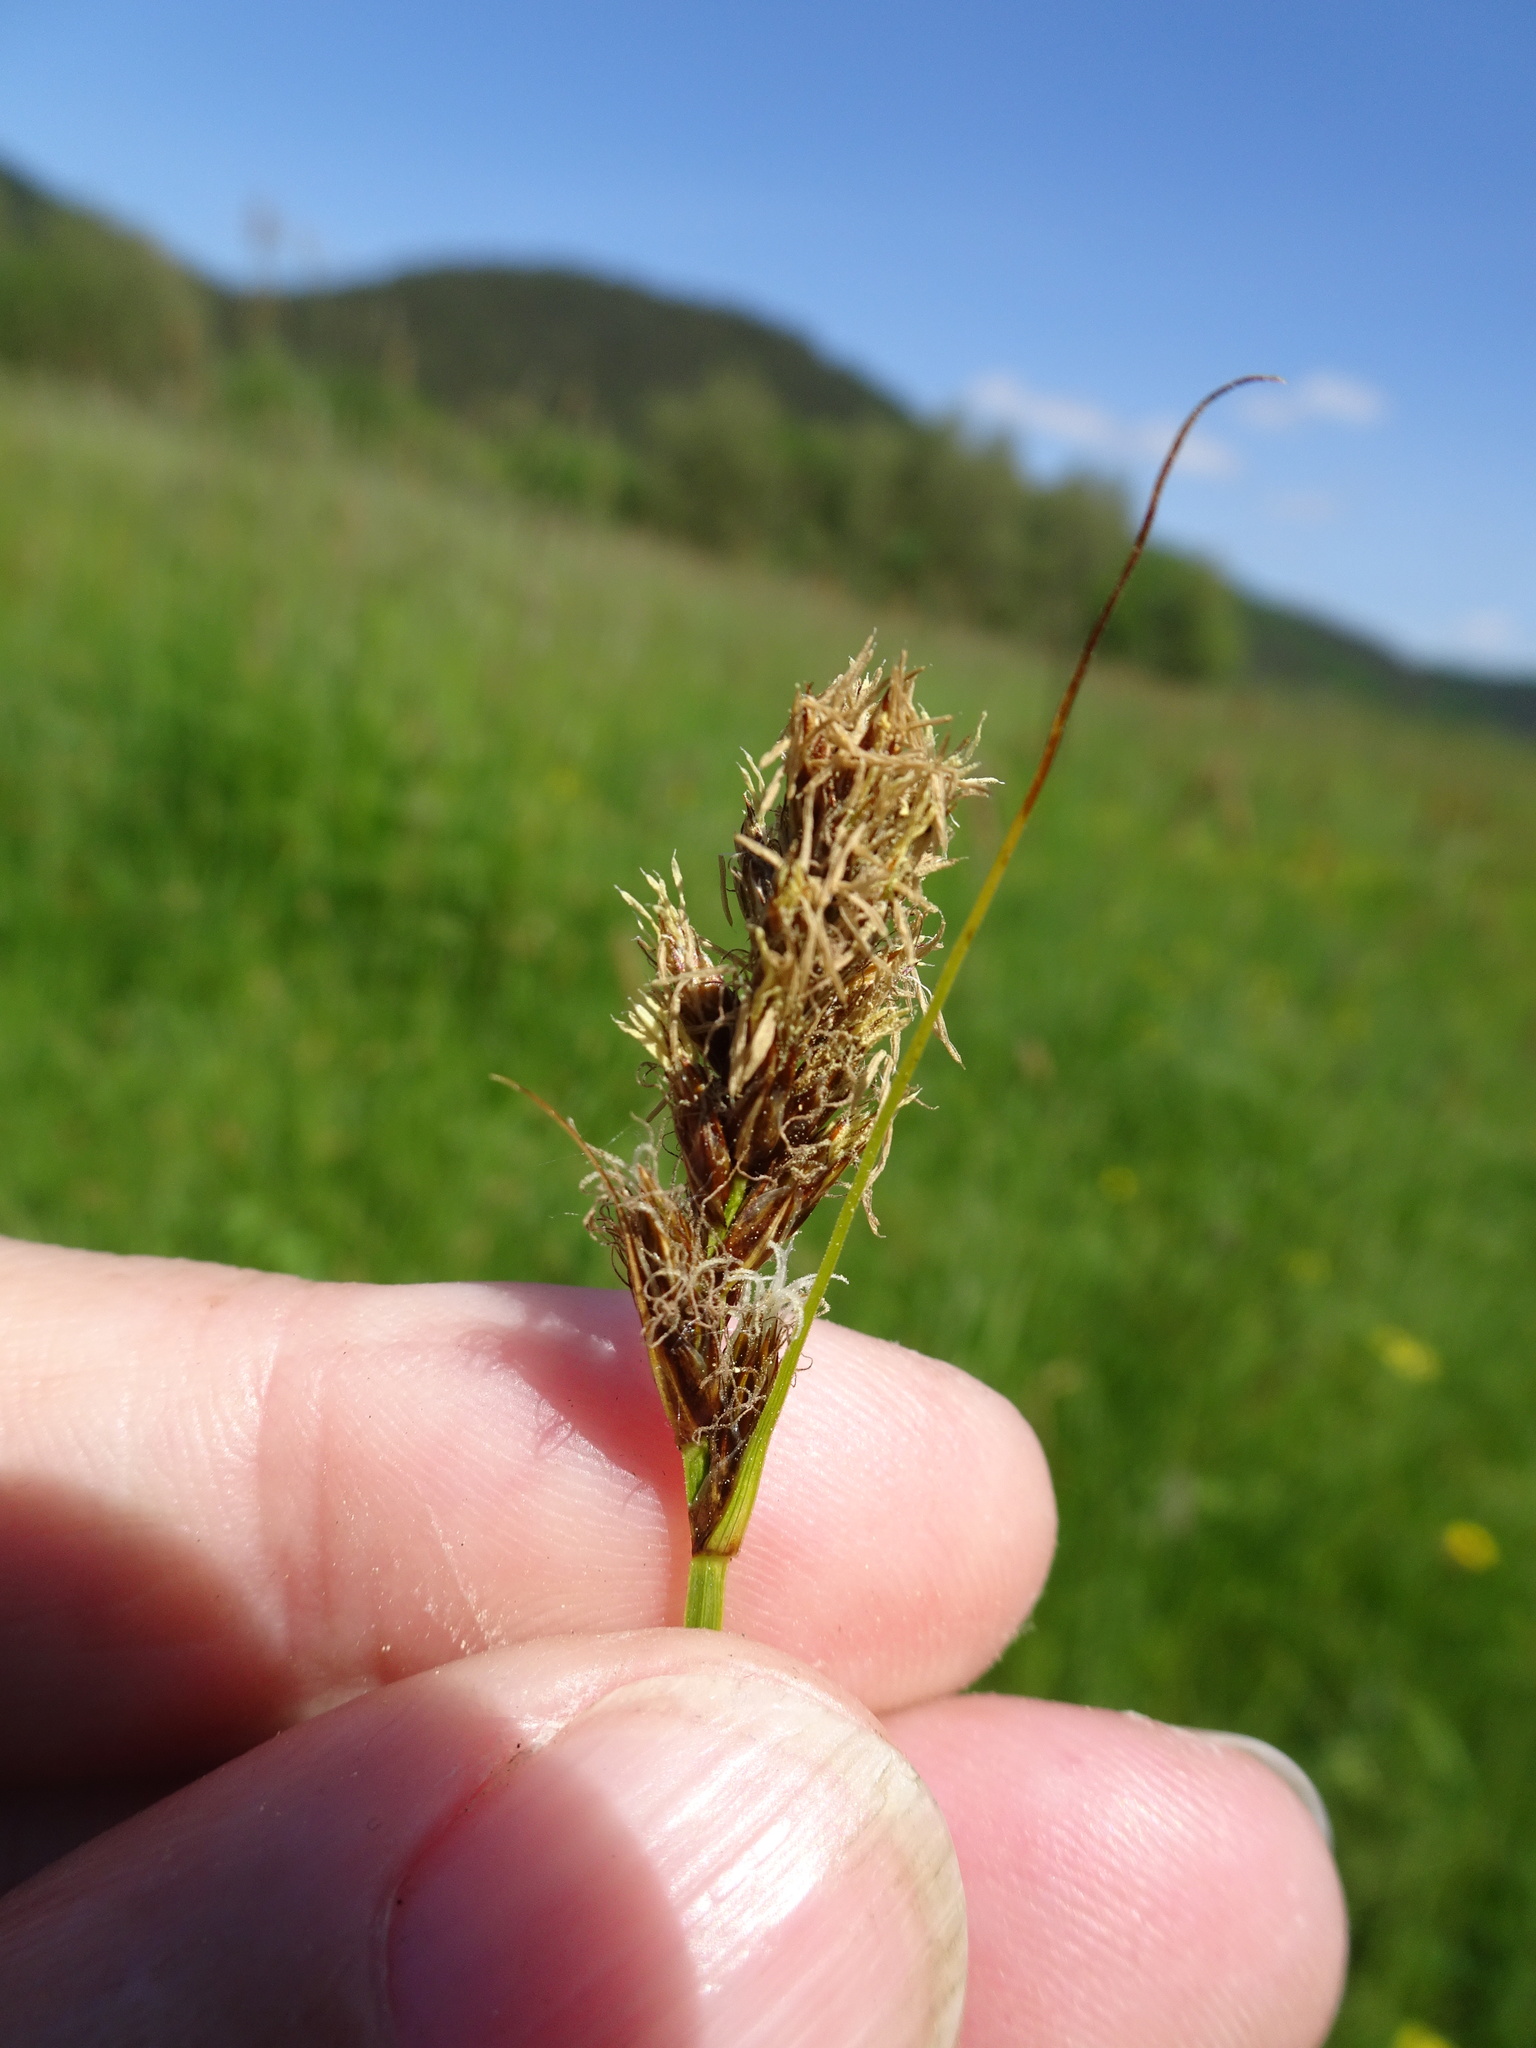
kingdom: Plantae
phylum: Tracheophyta
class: Liliopsida
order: Poales
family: Cyperaceae
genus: Carex
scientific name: Carex disticha
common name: Brown sedge
